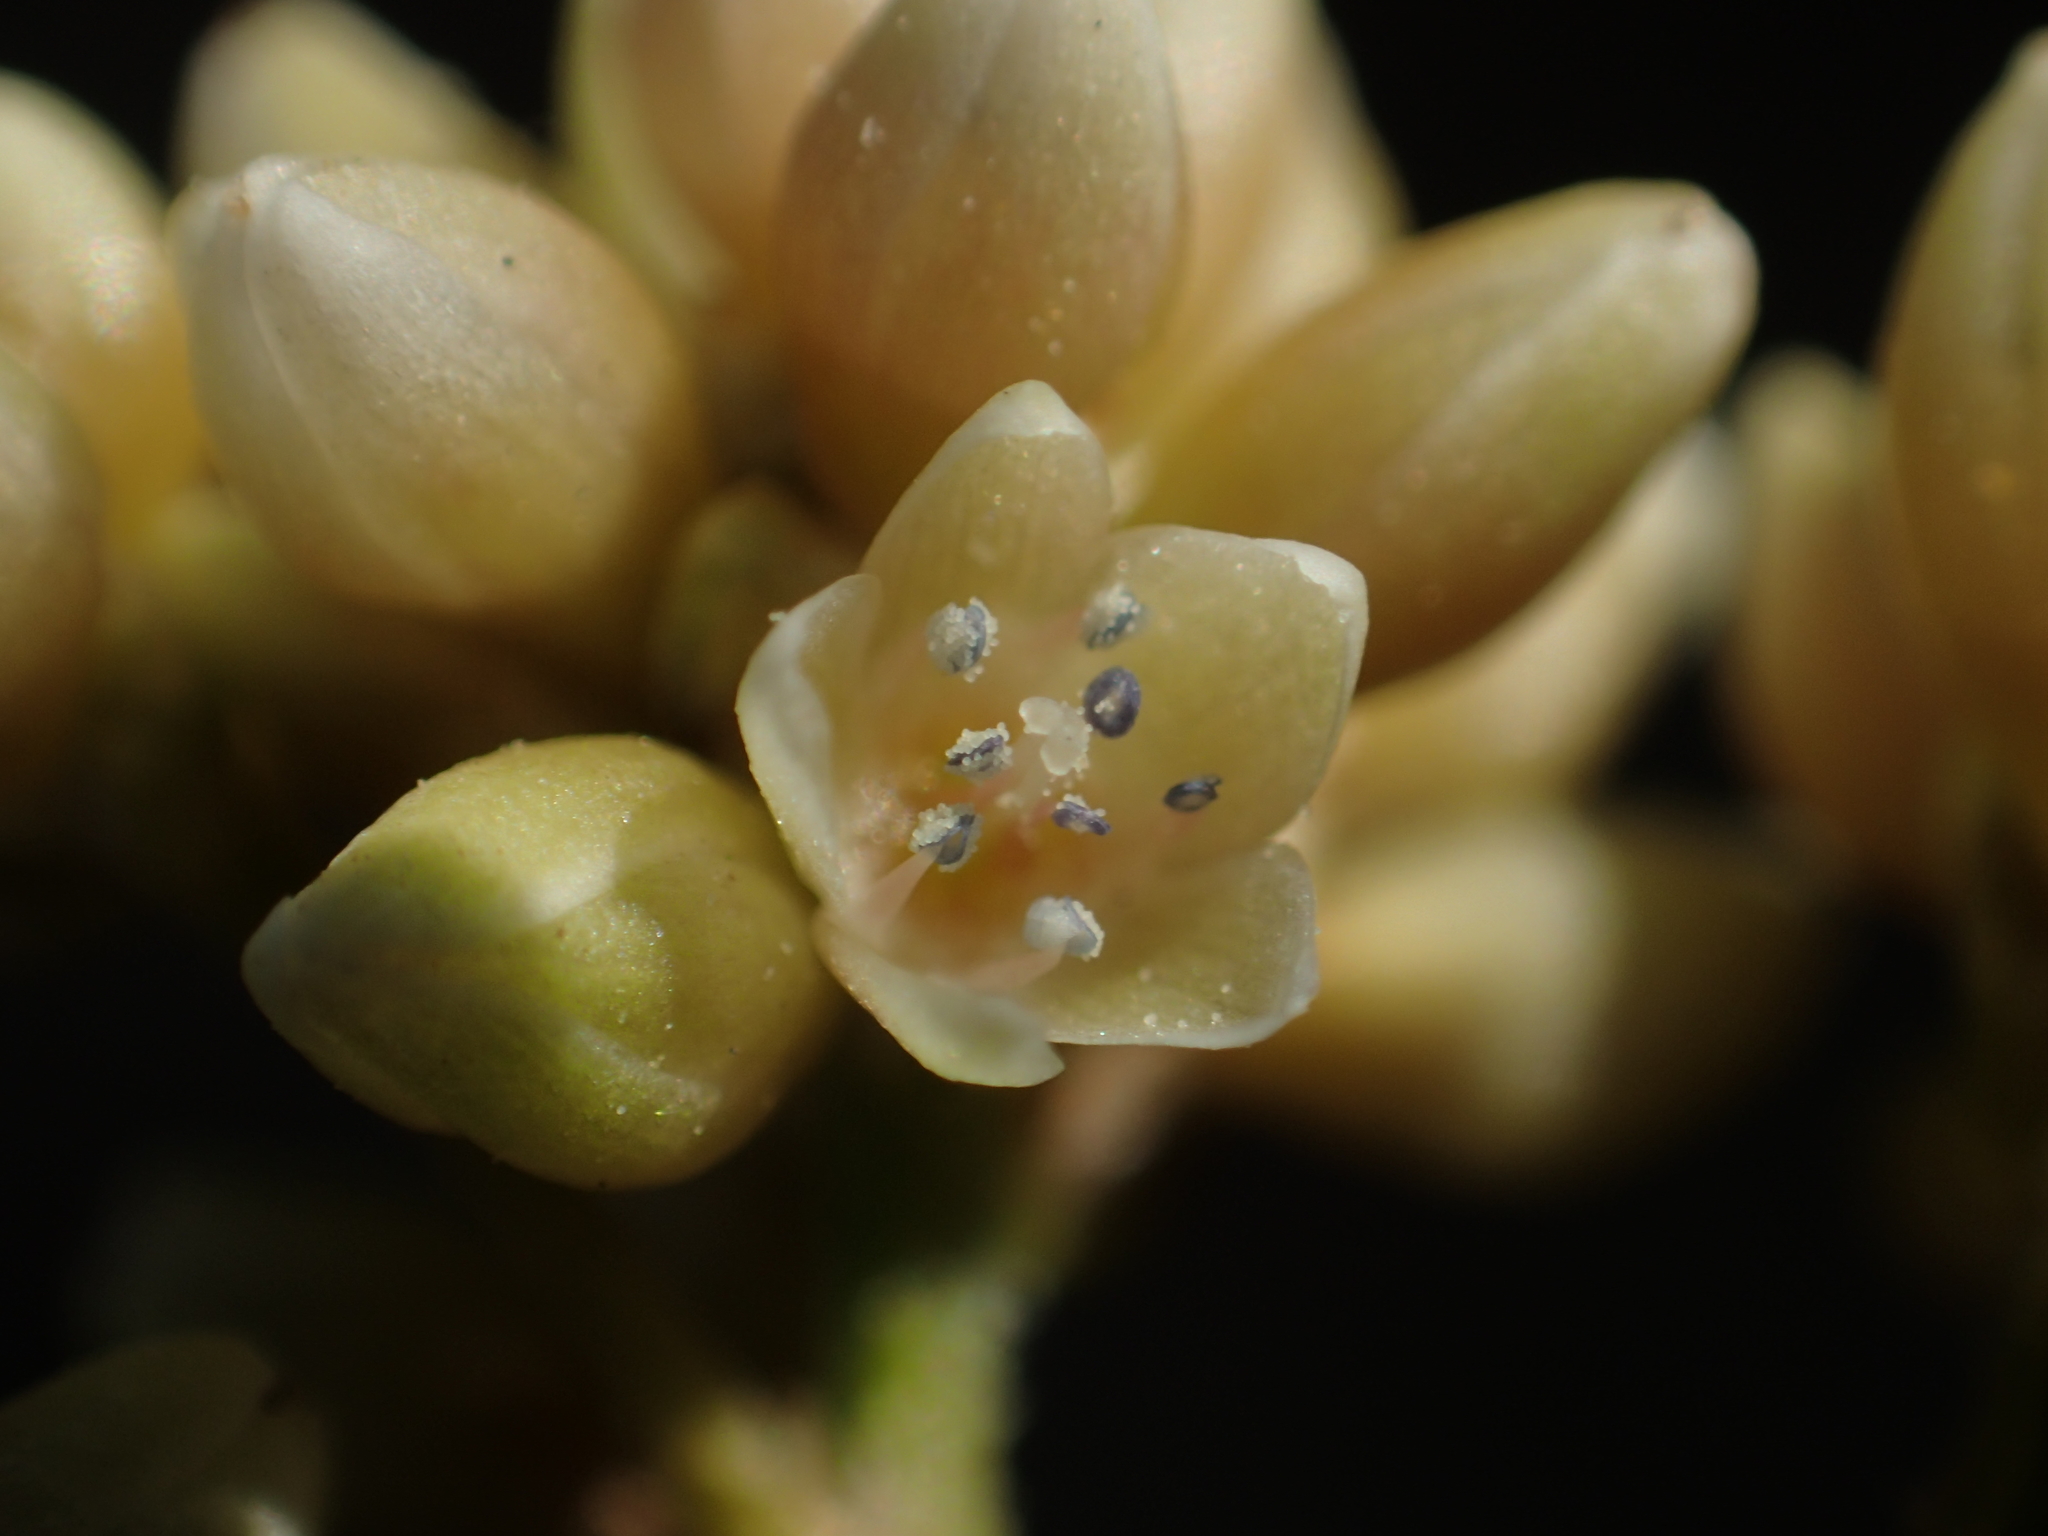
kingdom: Plantae
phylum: Tracheophyta
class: Magnoliopsida
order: Caryophyllales
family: Polygonaceae
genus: Persicaria
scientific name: Persicaria chinensis
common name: Chinese knotweed
